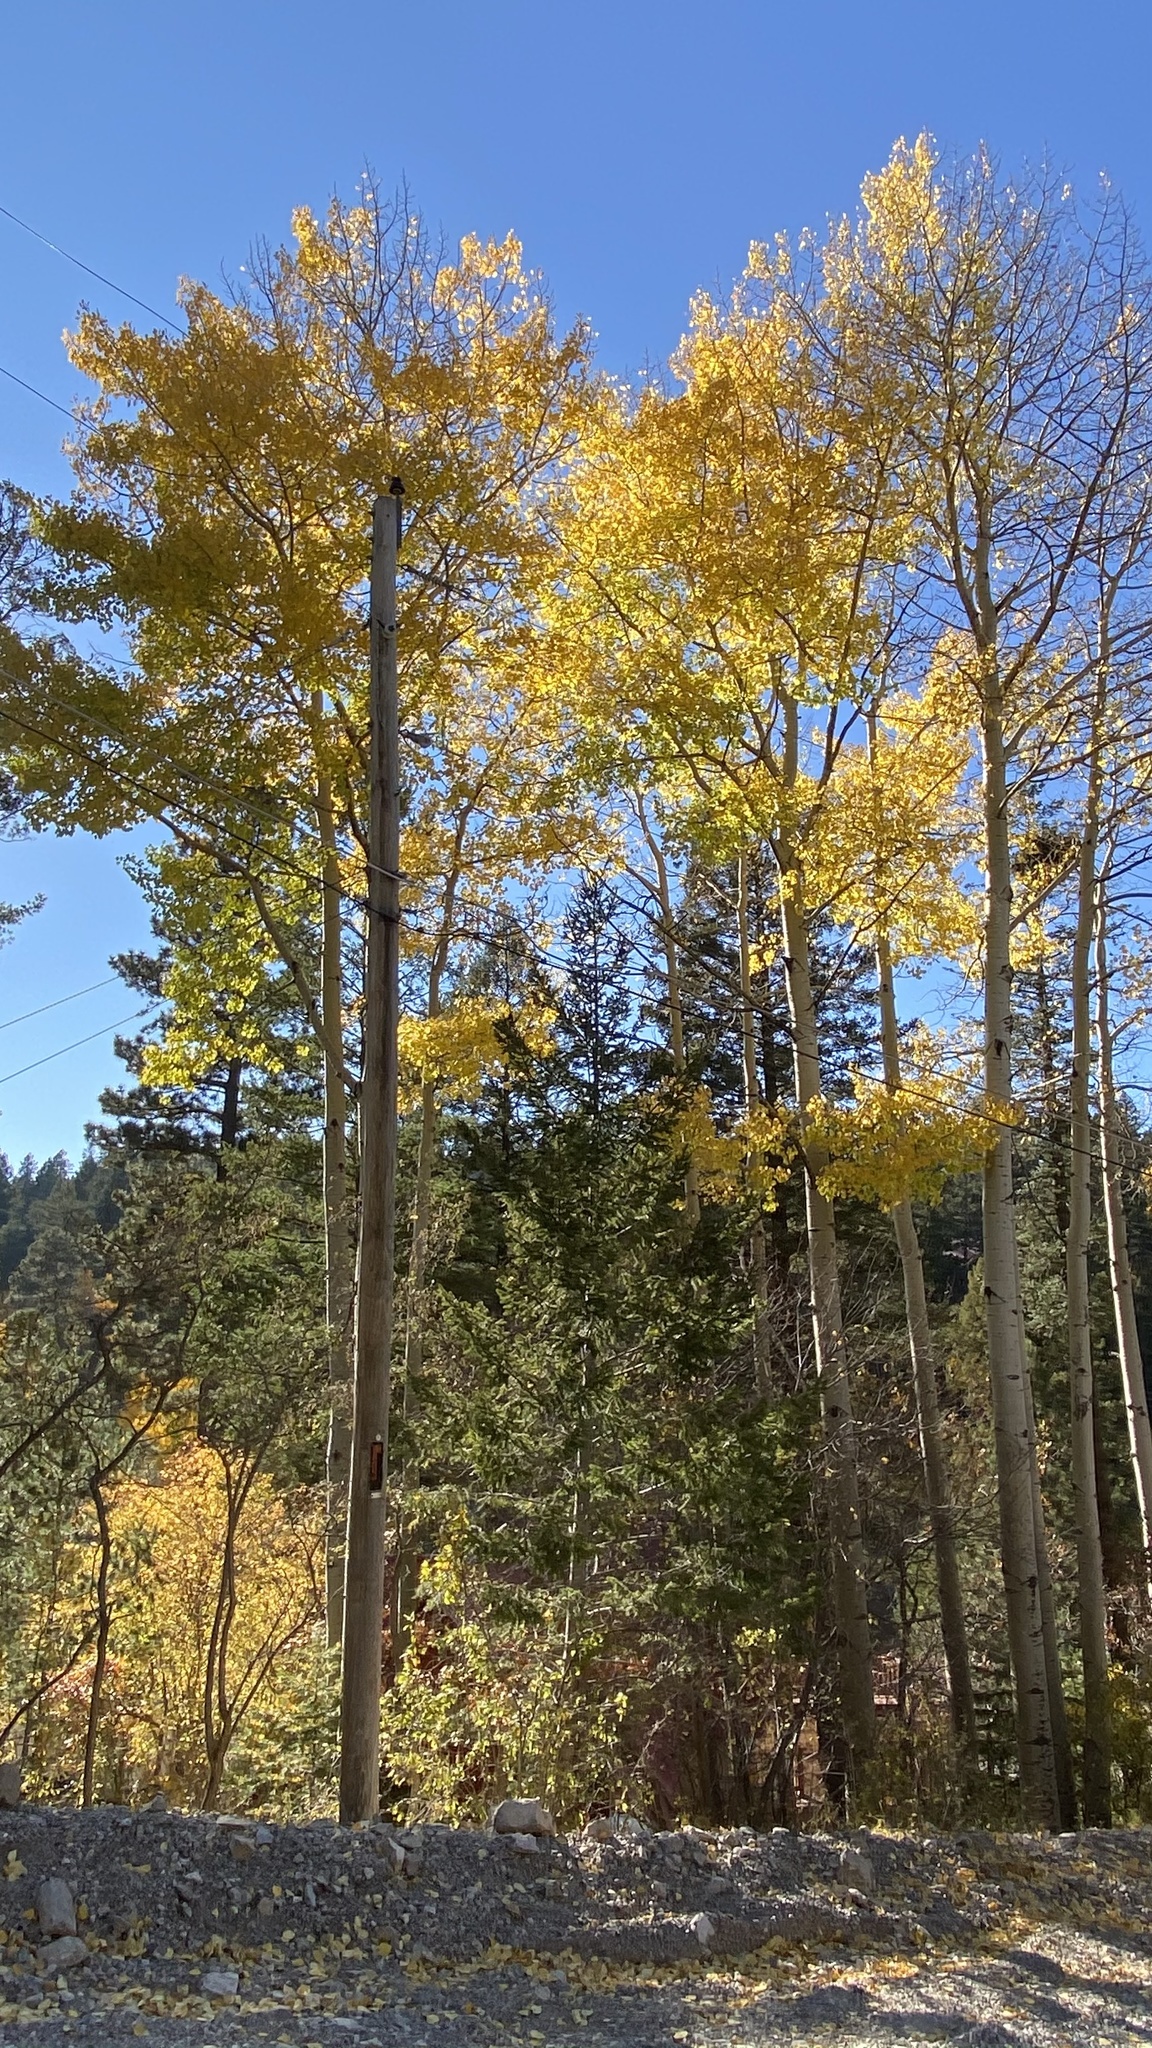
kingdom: Plantae
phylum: Tracheophyta
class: Magnoliopsida
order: Malpighiales
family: Salicaceae
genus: Populus
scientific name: Populus tremuloides
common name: Quaking aspen
